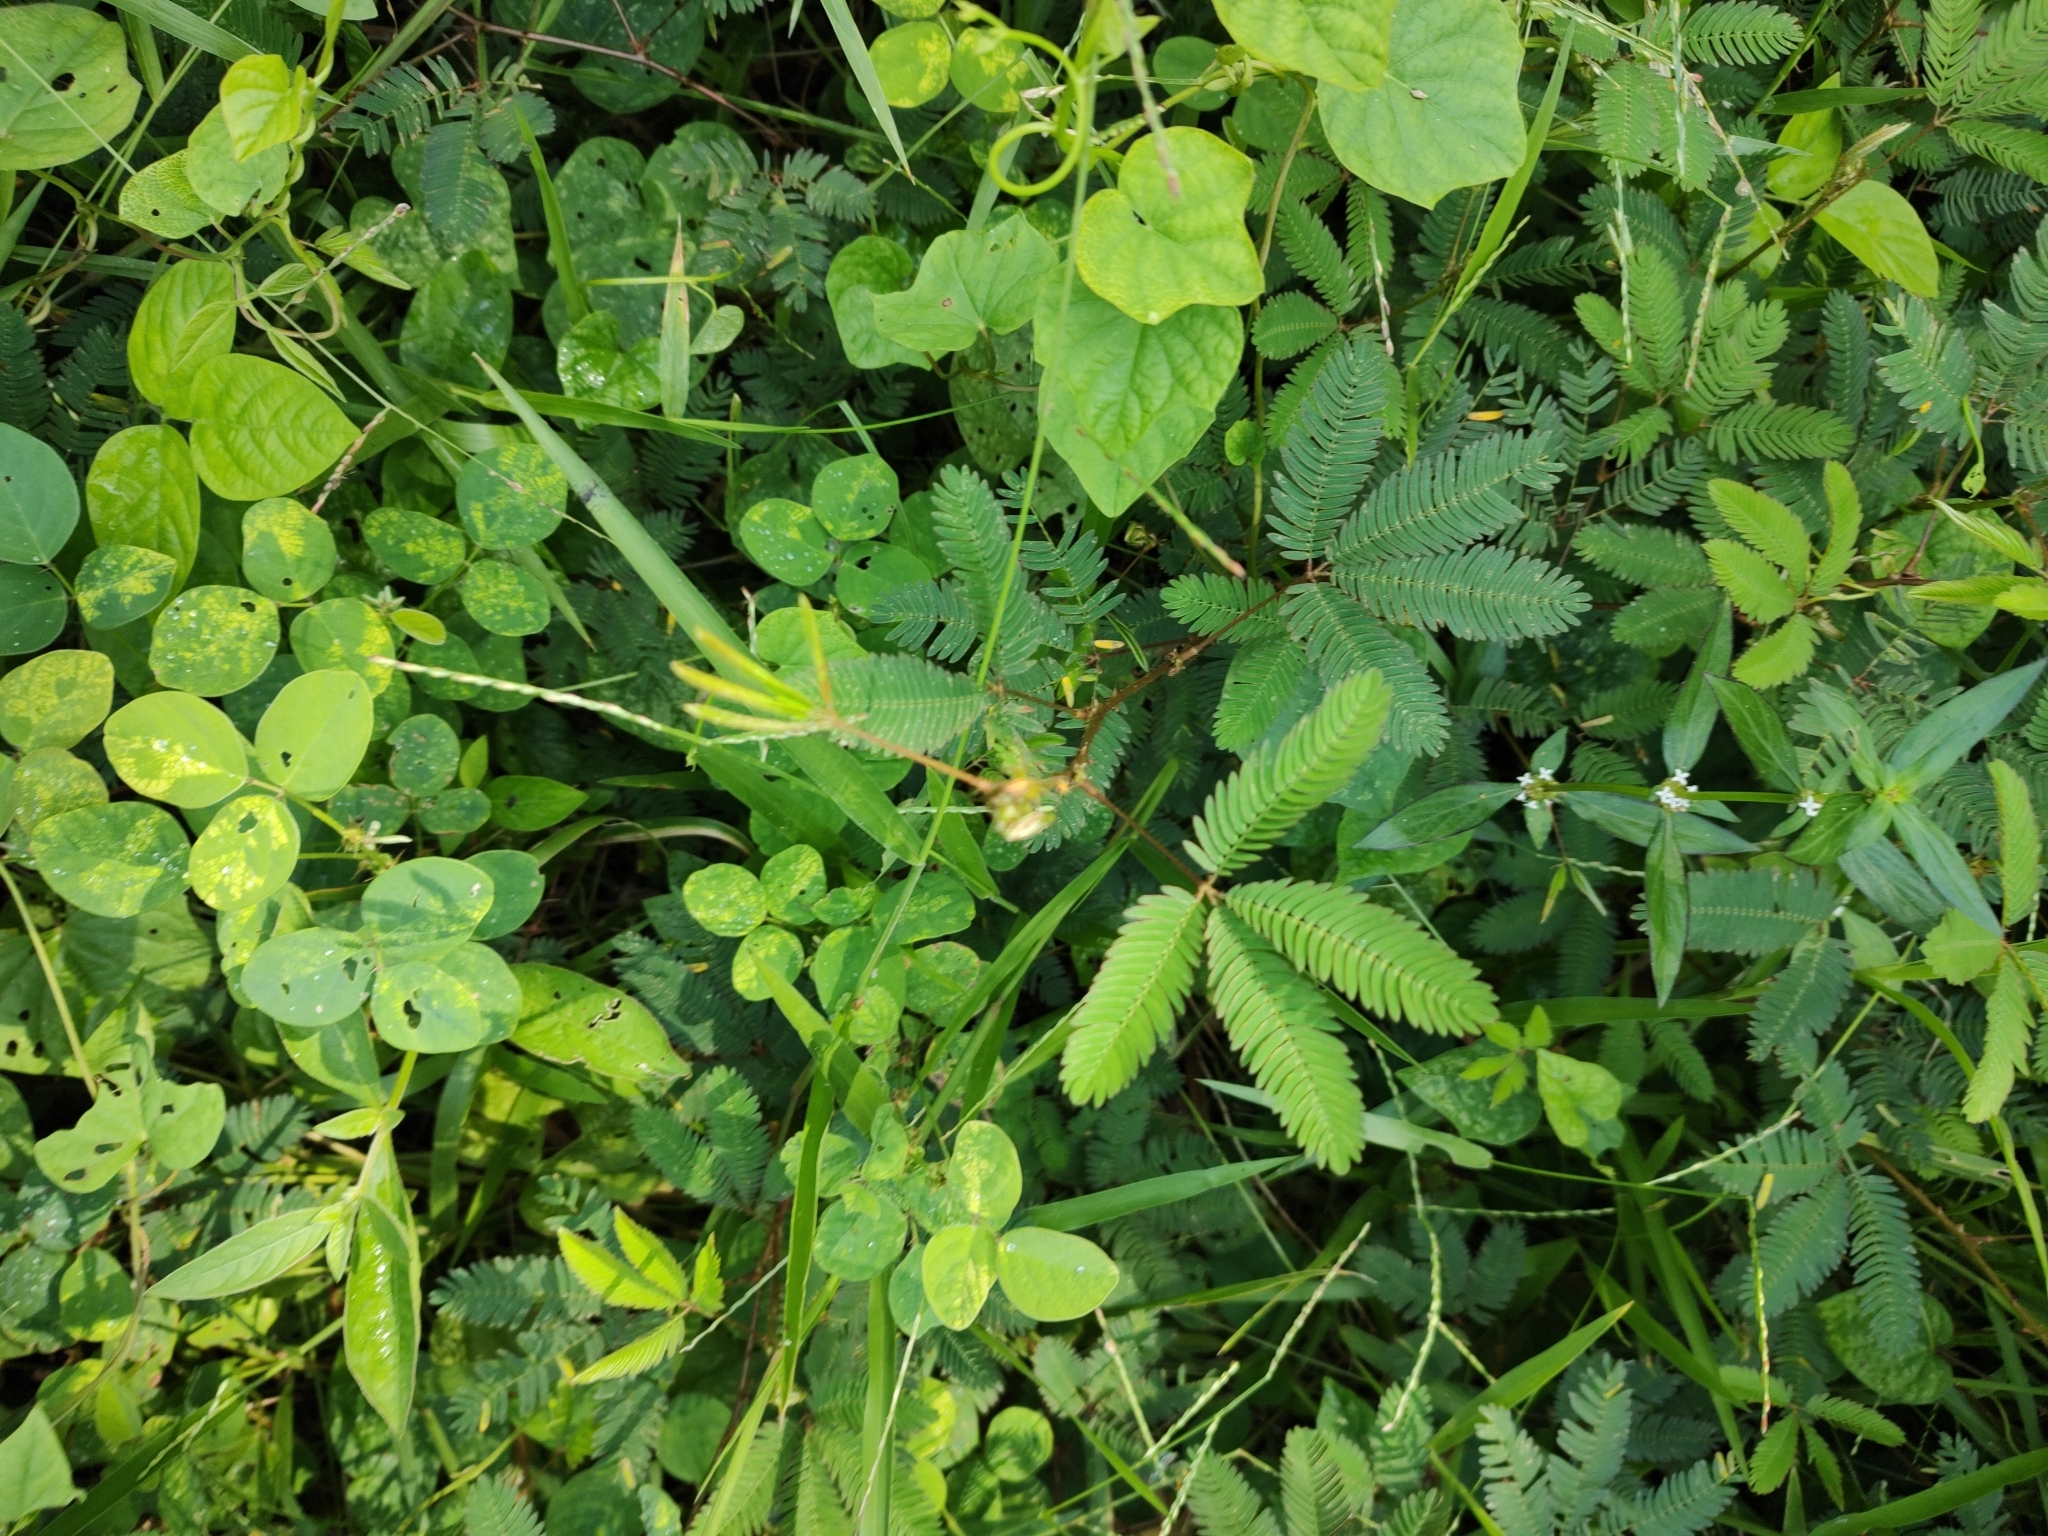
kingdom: Plantae
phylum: Tracheophyta
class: Magnoliopsida
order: Fabales
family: Fabaceae
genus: Mimosa
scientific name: Mimosa pudica
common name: Sensitive plant
